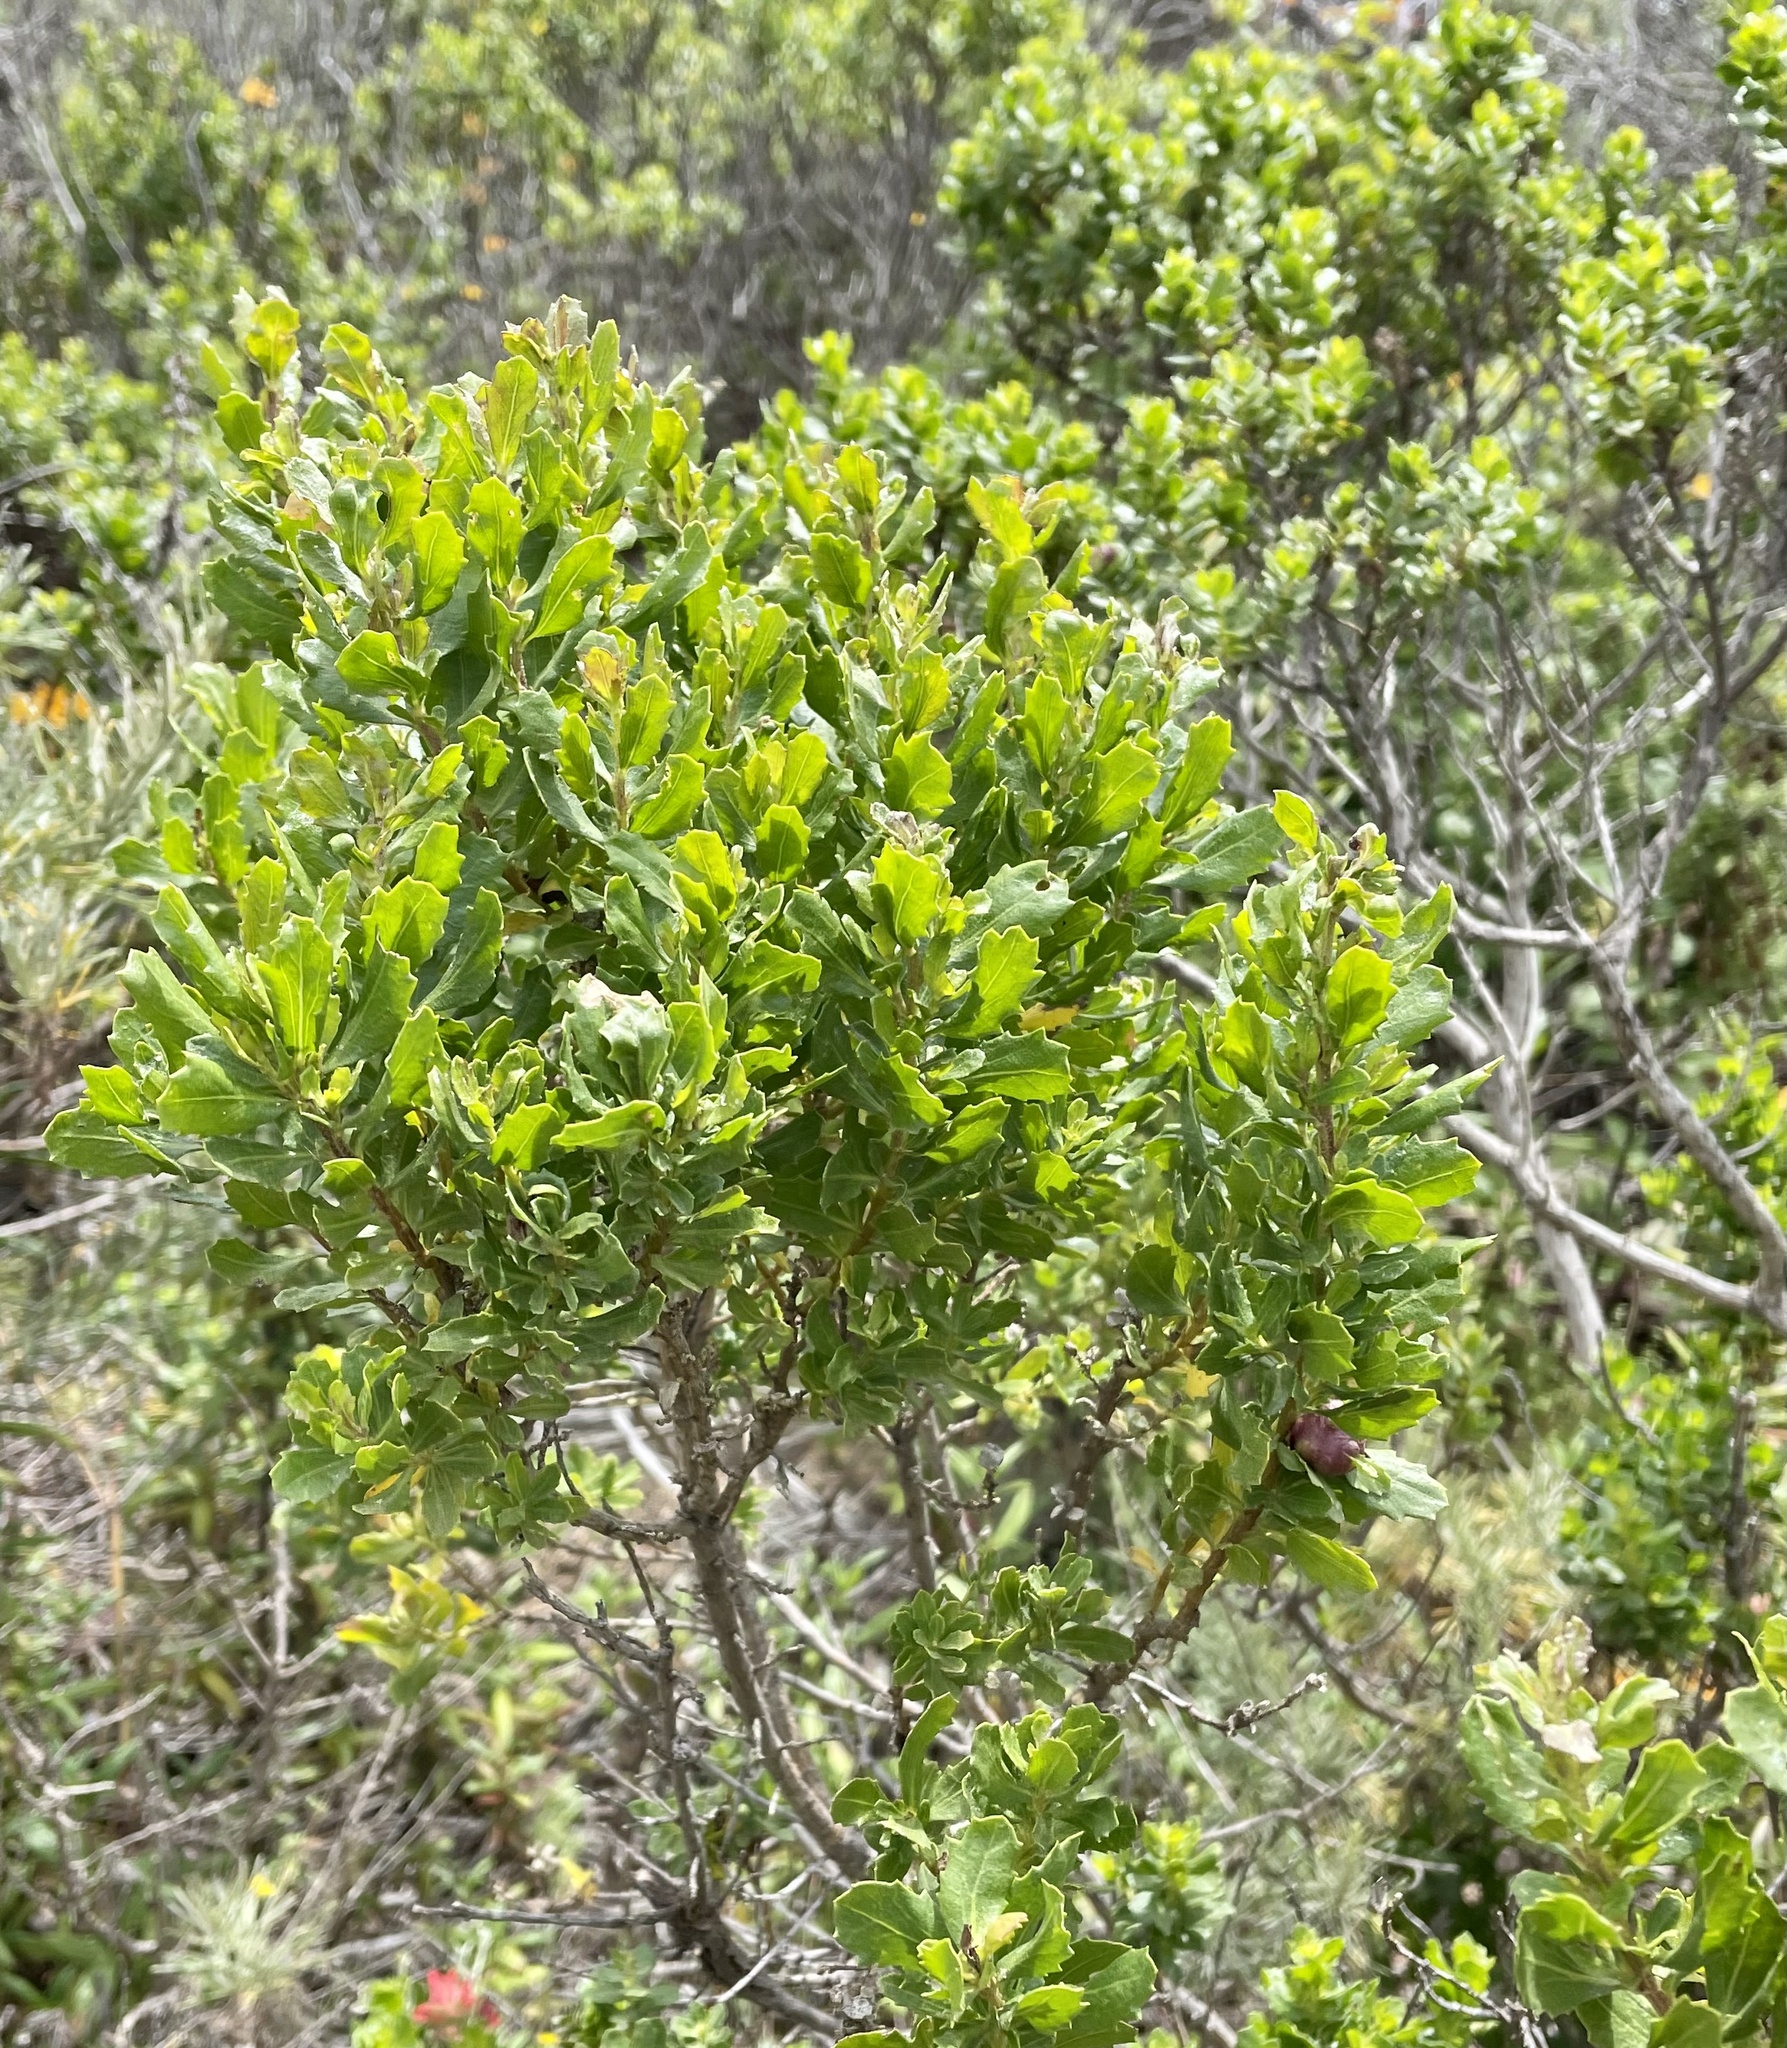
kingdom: Animalia
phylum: Arthropoda
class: Insecta
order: Diptera
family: Cecidomyiidae
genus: Rhopalomyia
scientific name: Rhopalomyia californica
